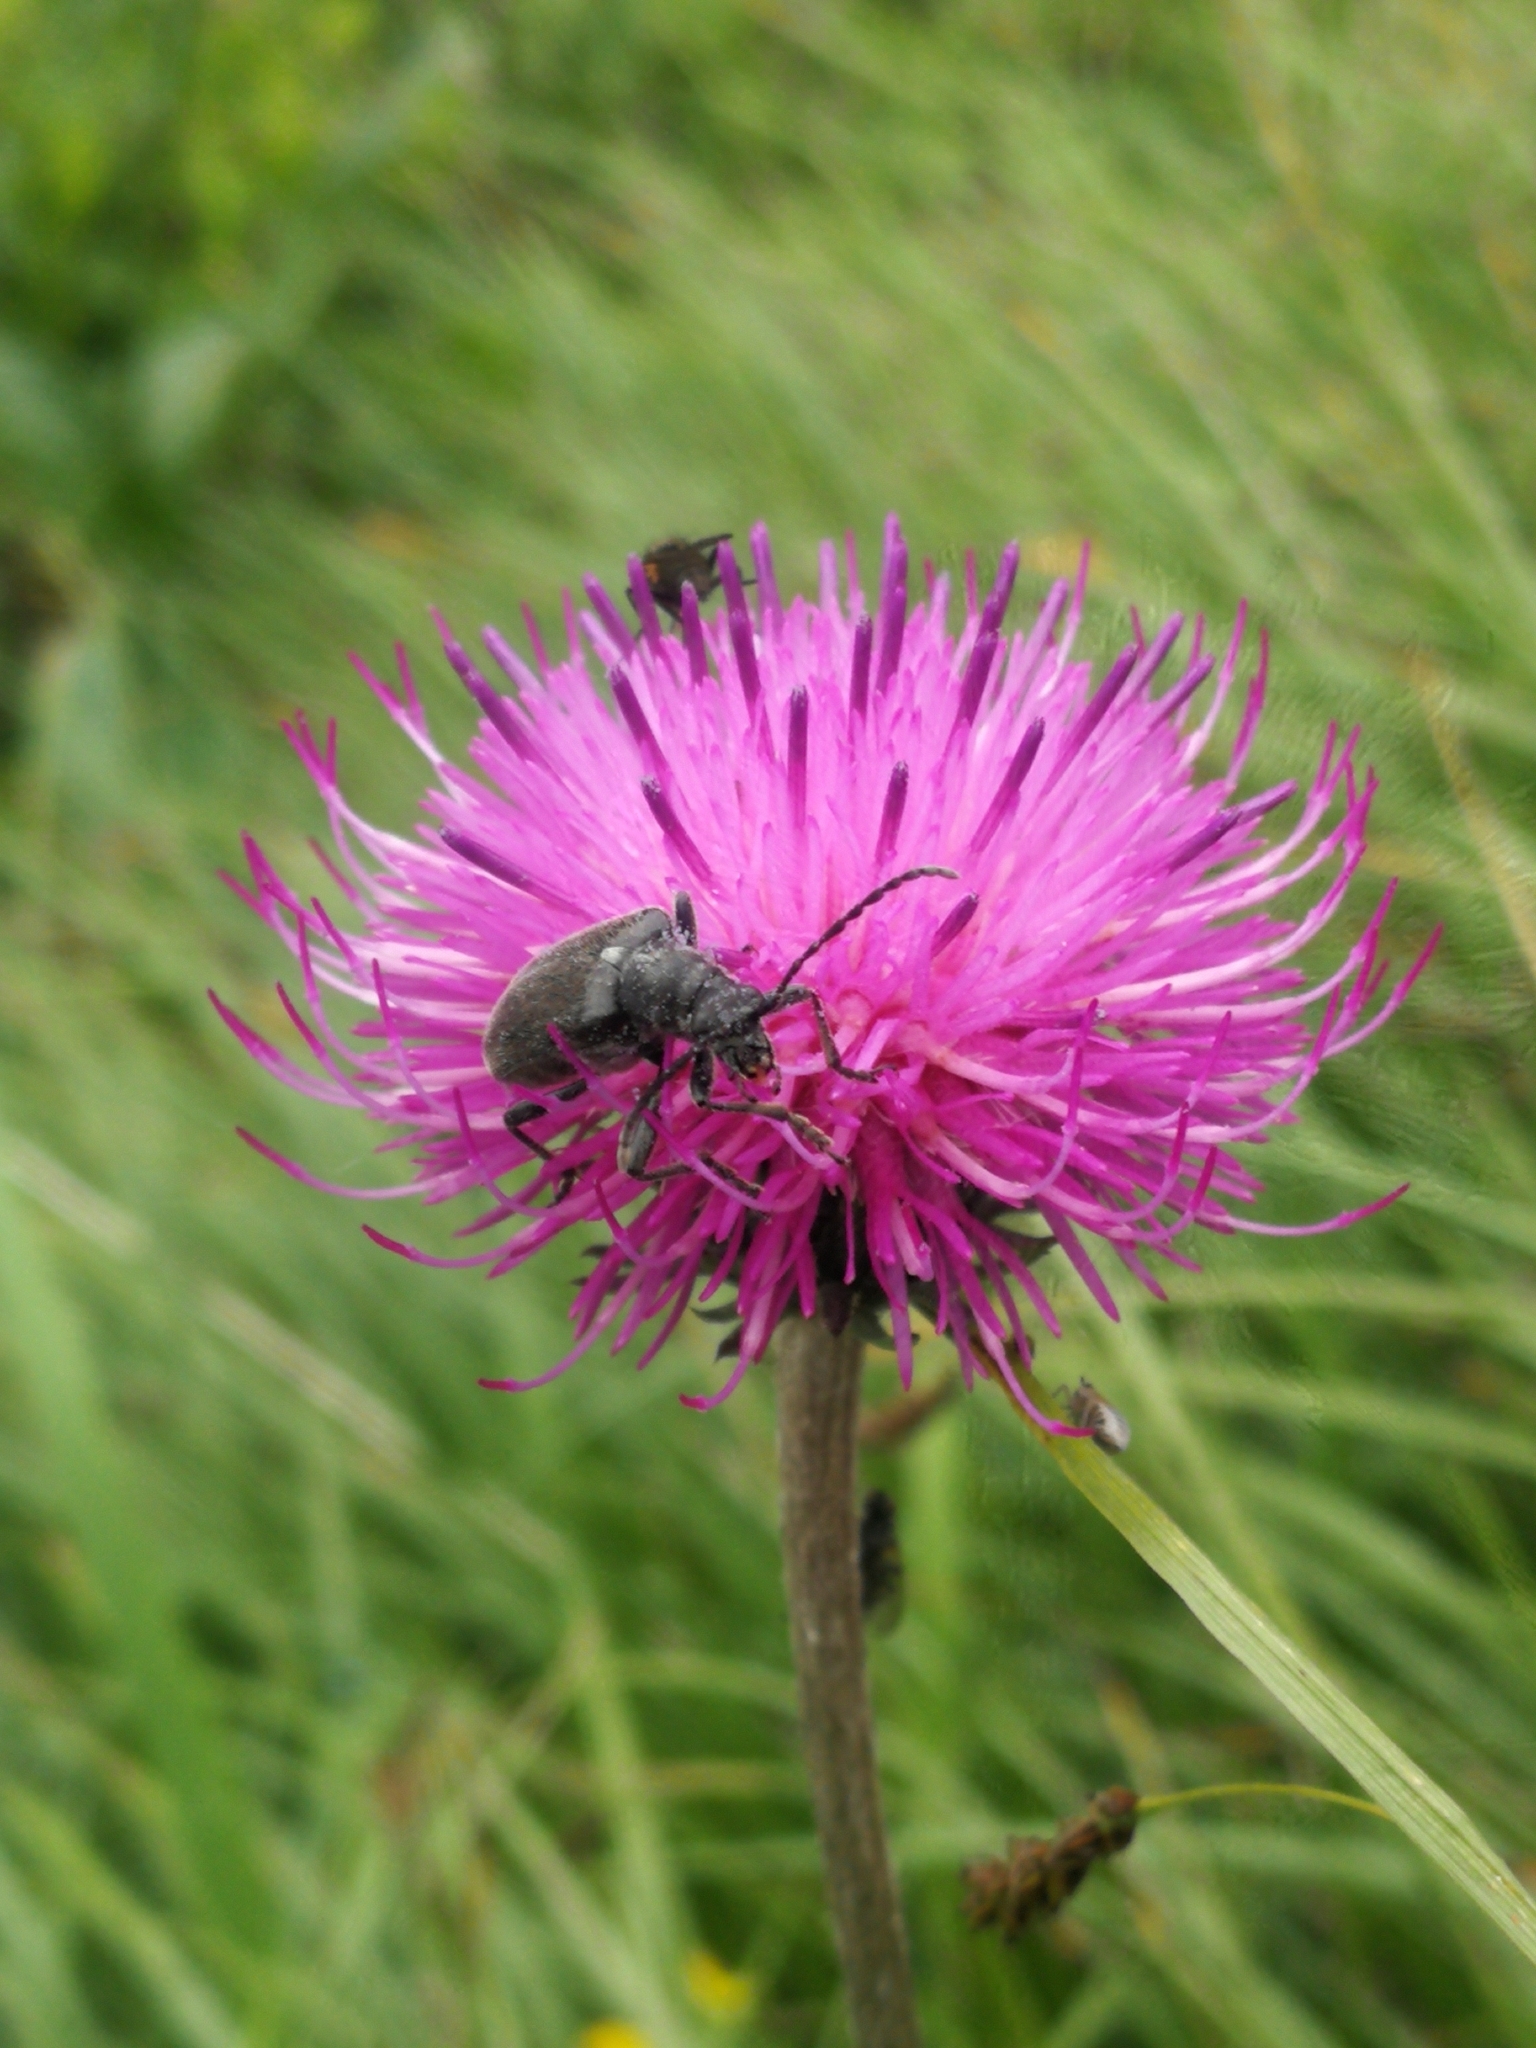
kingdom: Animalia
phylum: Arthropoda
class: Insecta
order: Coleoptera
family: Cerambycidae
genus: Brachyta
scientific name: Brachyta interrogationis
